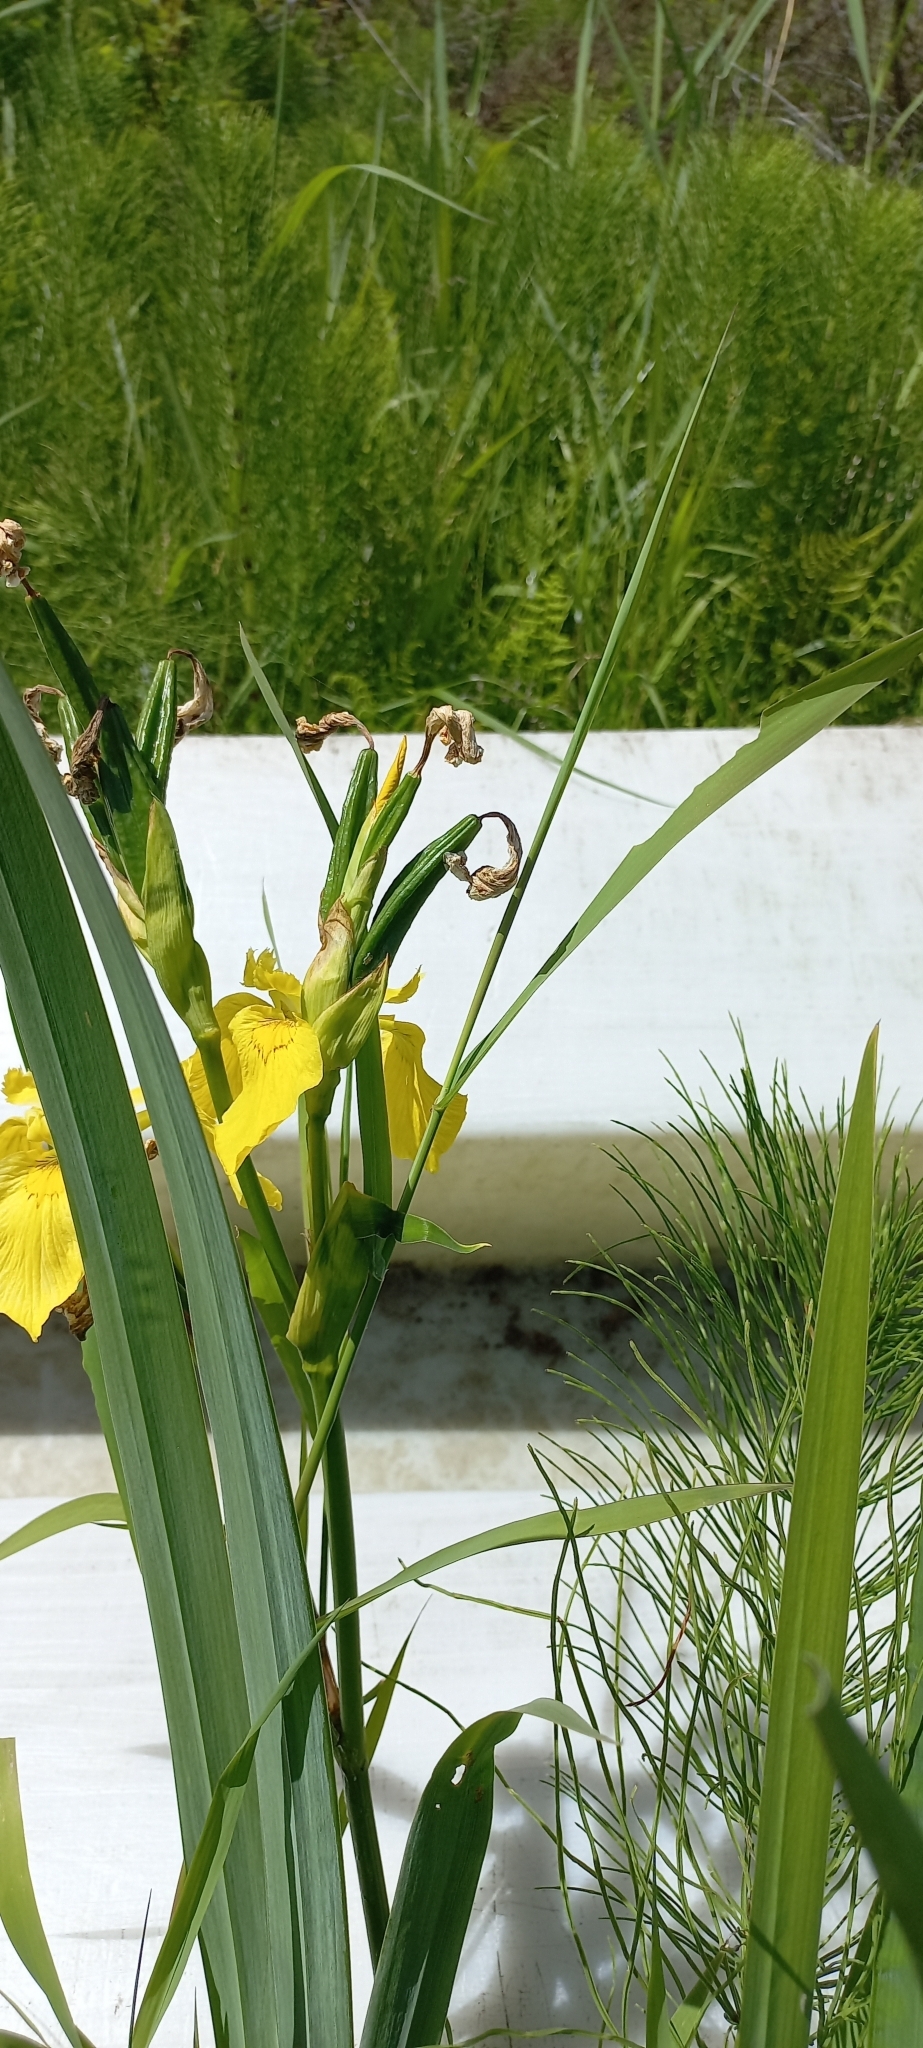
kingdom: Plantae
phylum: Tracheophyta
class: Liliopsida
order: Asparagales
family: Iridaceae
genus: Iris
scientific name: Iris pseudacorus
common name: Yellow flag
